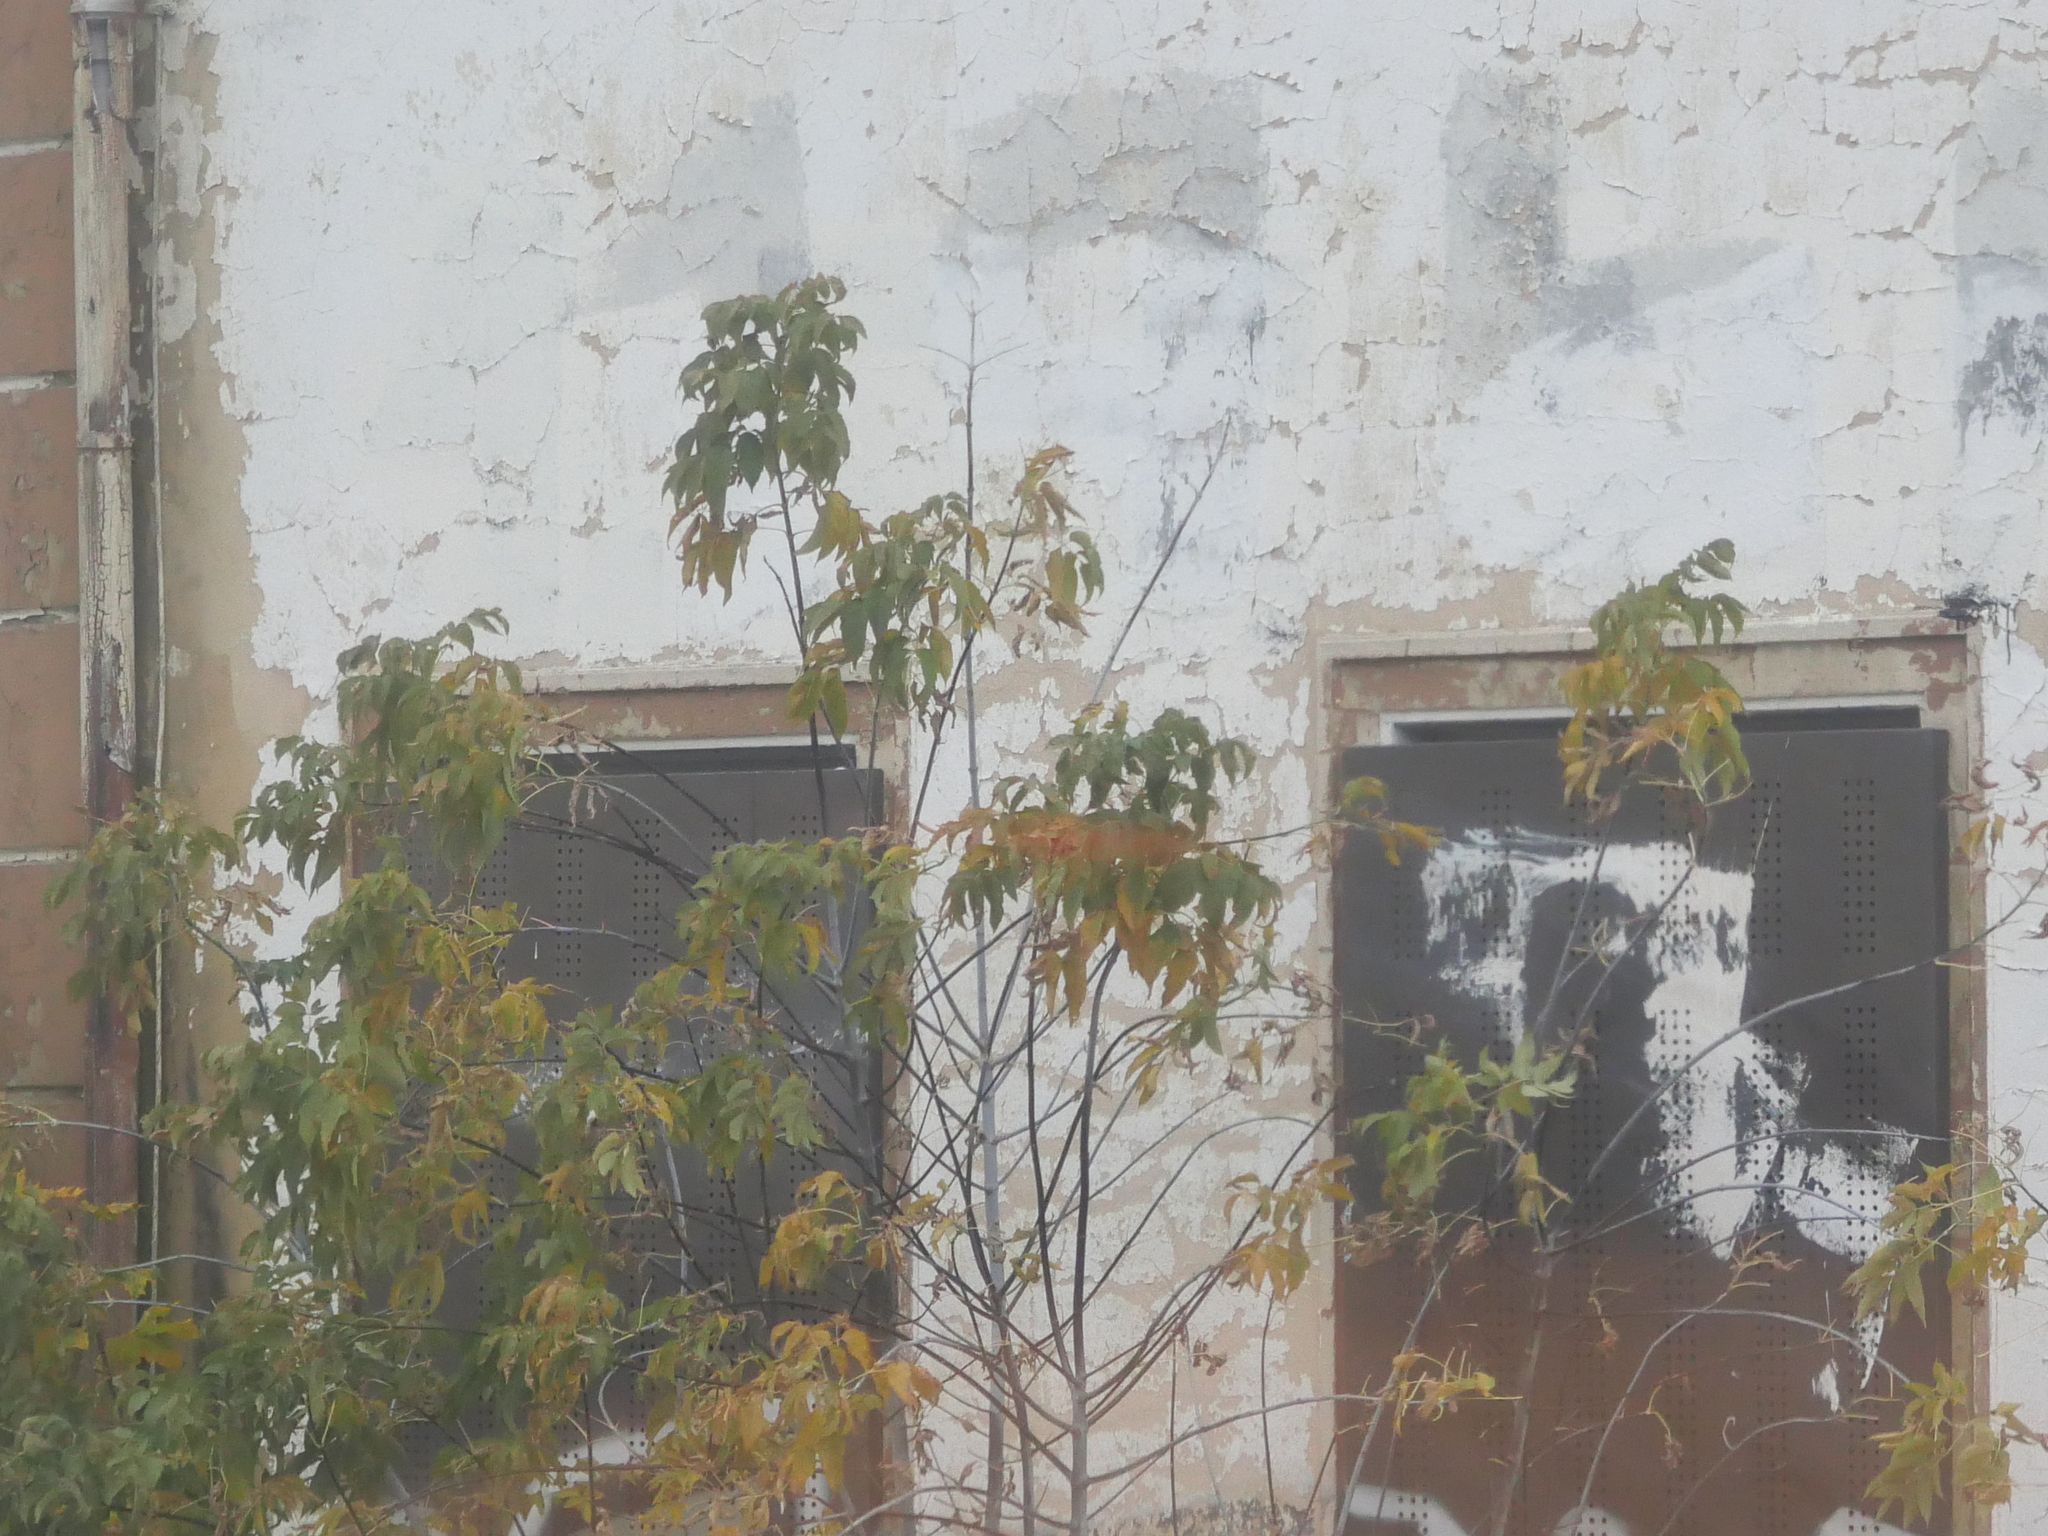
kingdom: Plantae
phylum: Tracheophyta
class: Magnoliopsida
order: Sapindales
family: Sapindaceae
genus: Acer
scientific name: Acer negundo
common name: Ashleaf maple
